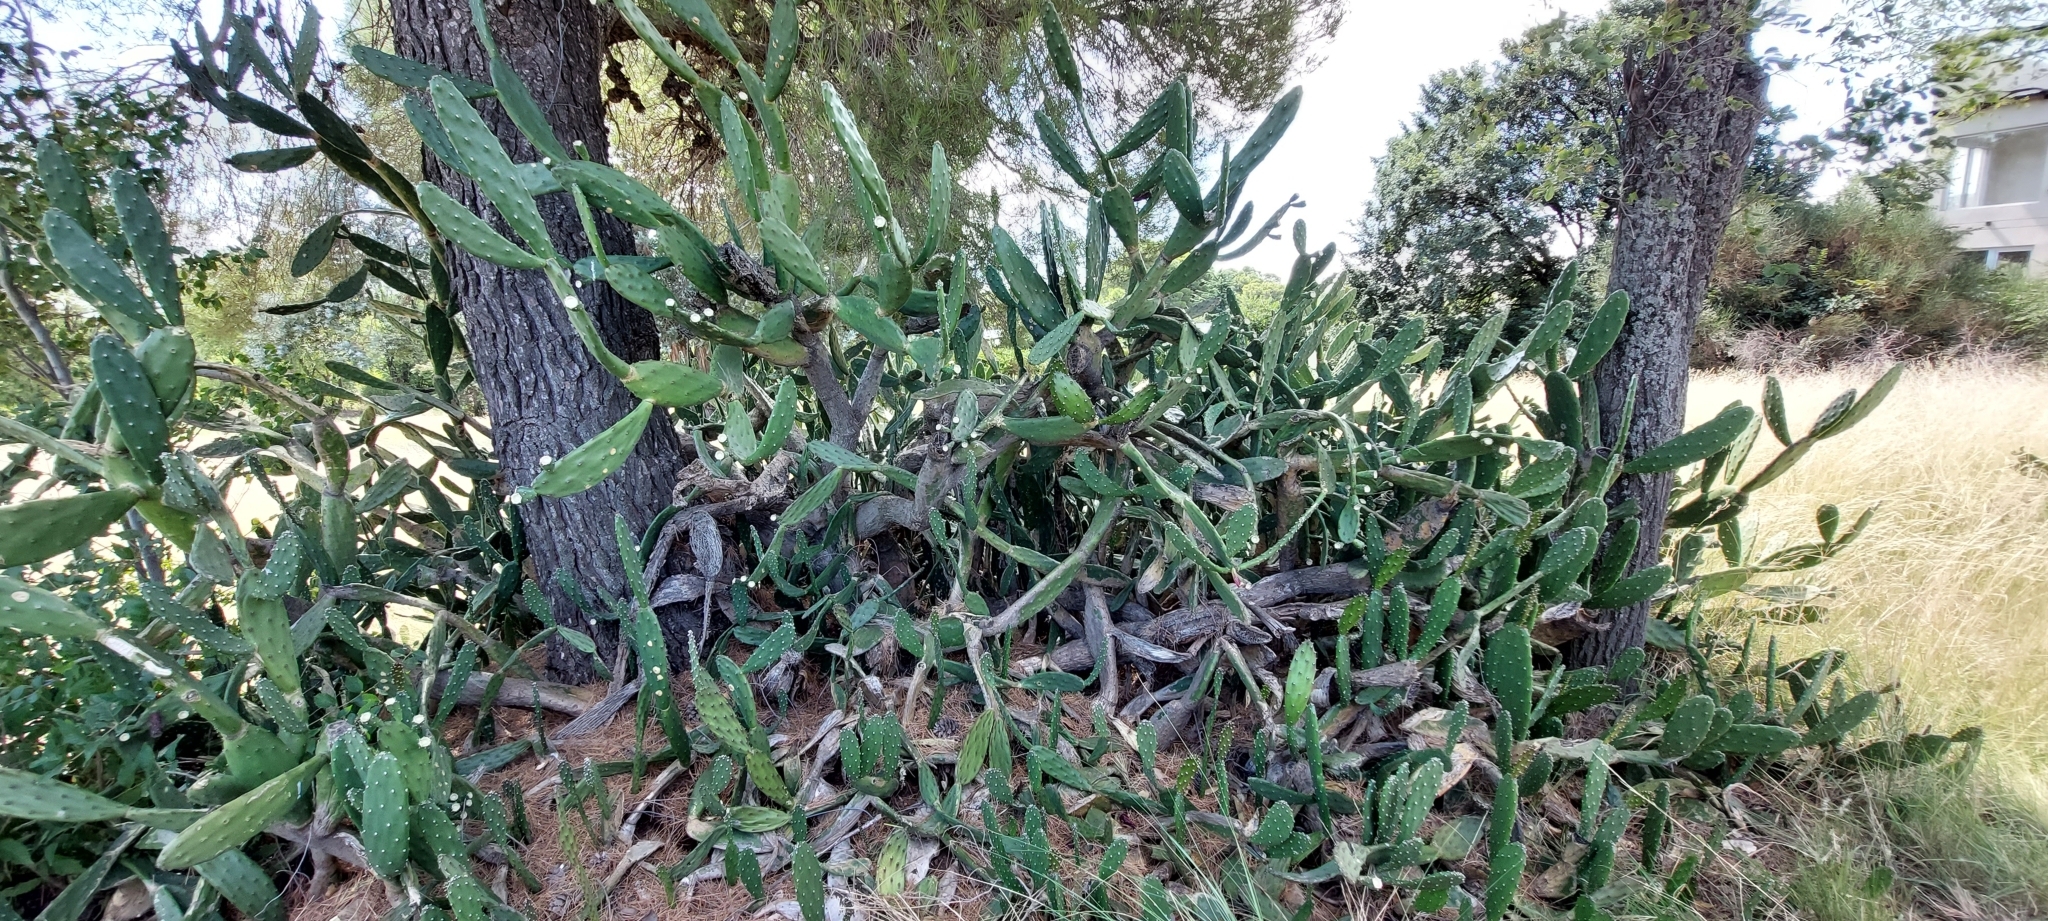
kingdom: Plantae
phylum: Tracheophyta
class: Magnoliopsida
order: Caryophyllales
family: Cactaceae
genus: Opuntia
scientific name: Opuntia elata
